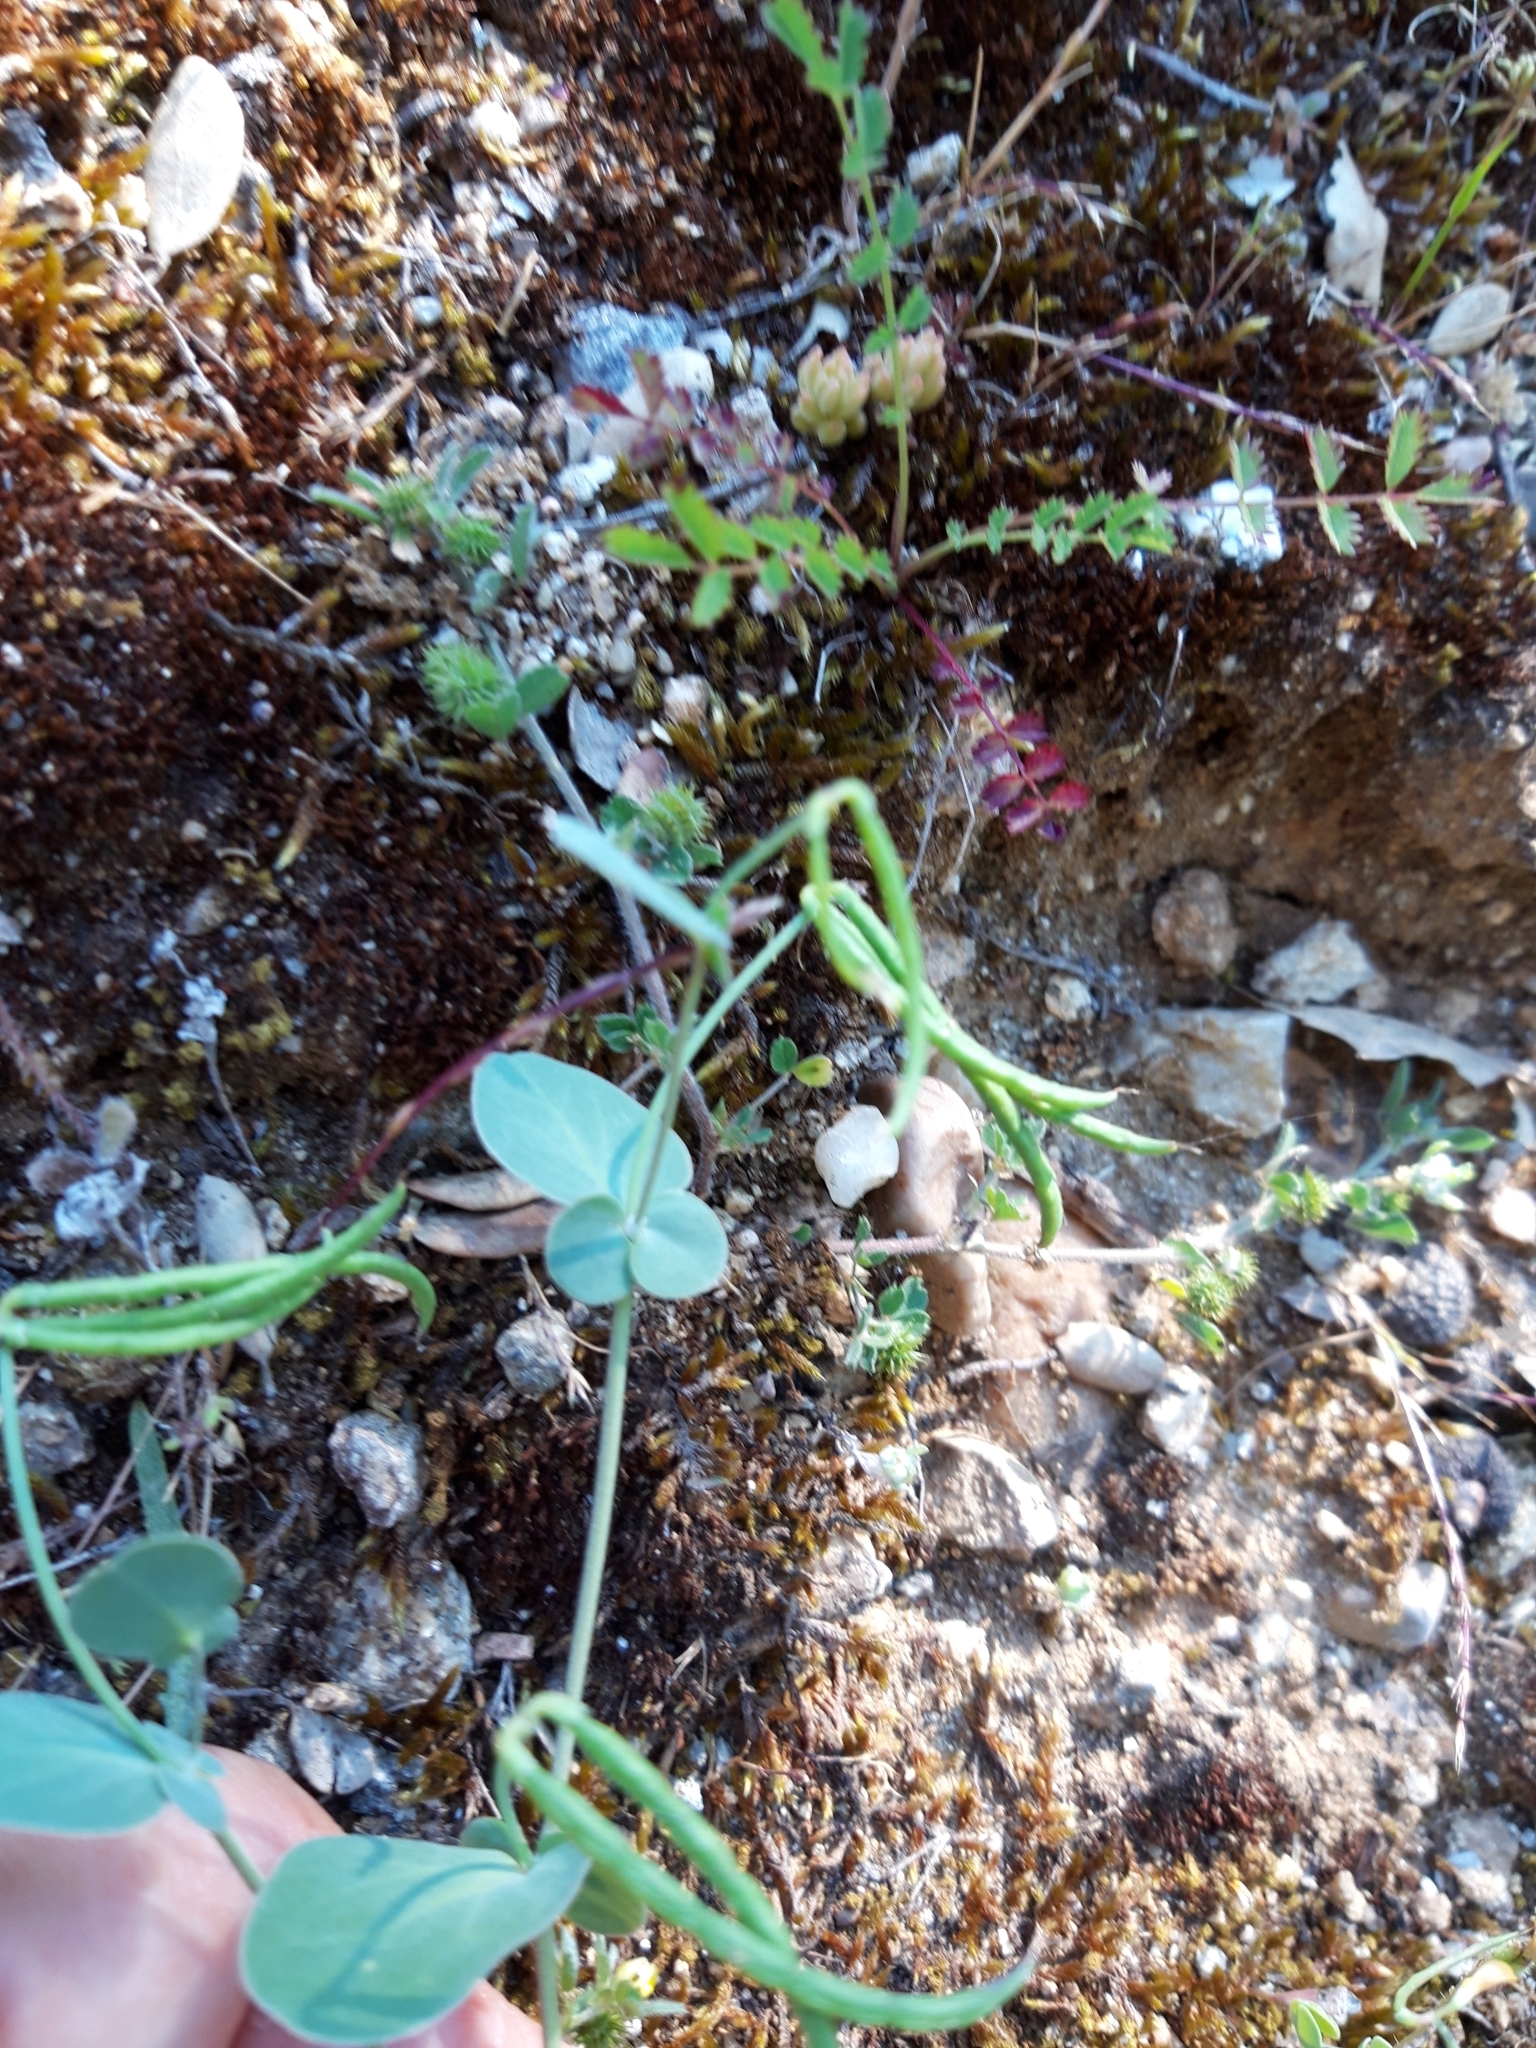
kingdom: Plantae
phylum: Tracheophyta
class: Magnoliopsida
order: Fabales
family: Fabaceae
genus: Coronilla
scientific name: Coronilla scorpioides
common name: Annual scorpion-vetch
